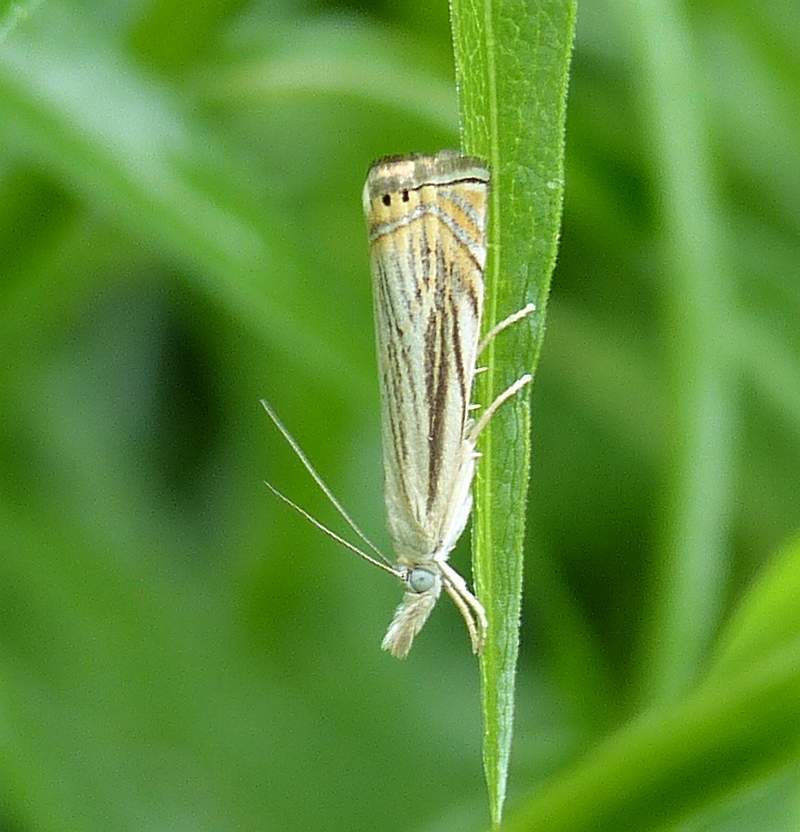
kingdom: Animalia
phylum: Arthropoda
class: Insecta
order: Lepidoptera
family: Crambidae
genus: Chrysoteuchia
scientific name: Chrysoteuchia topiarius
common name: Topiary grass-veneer
